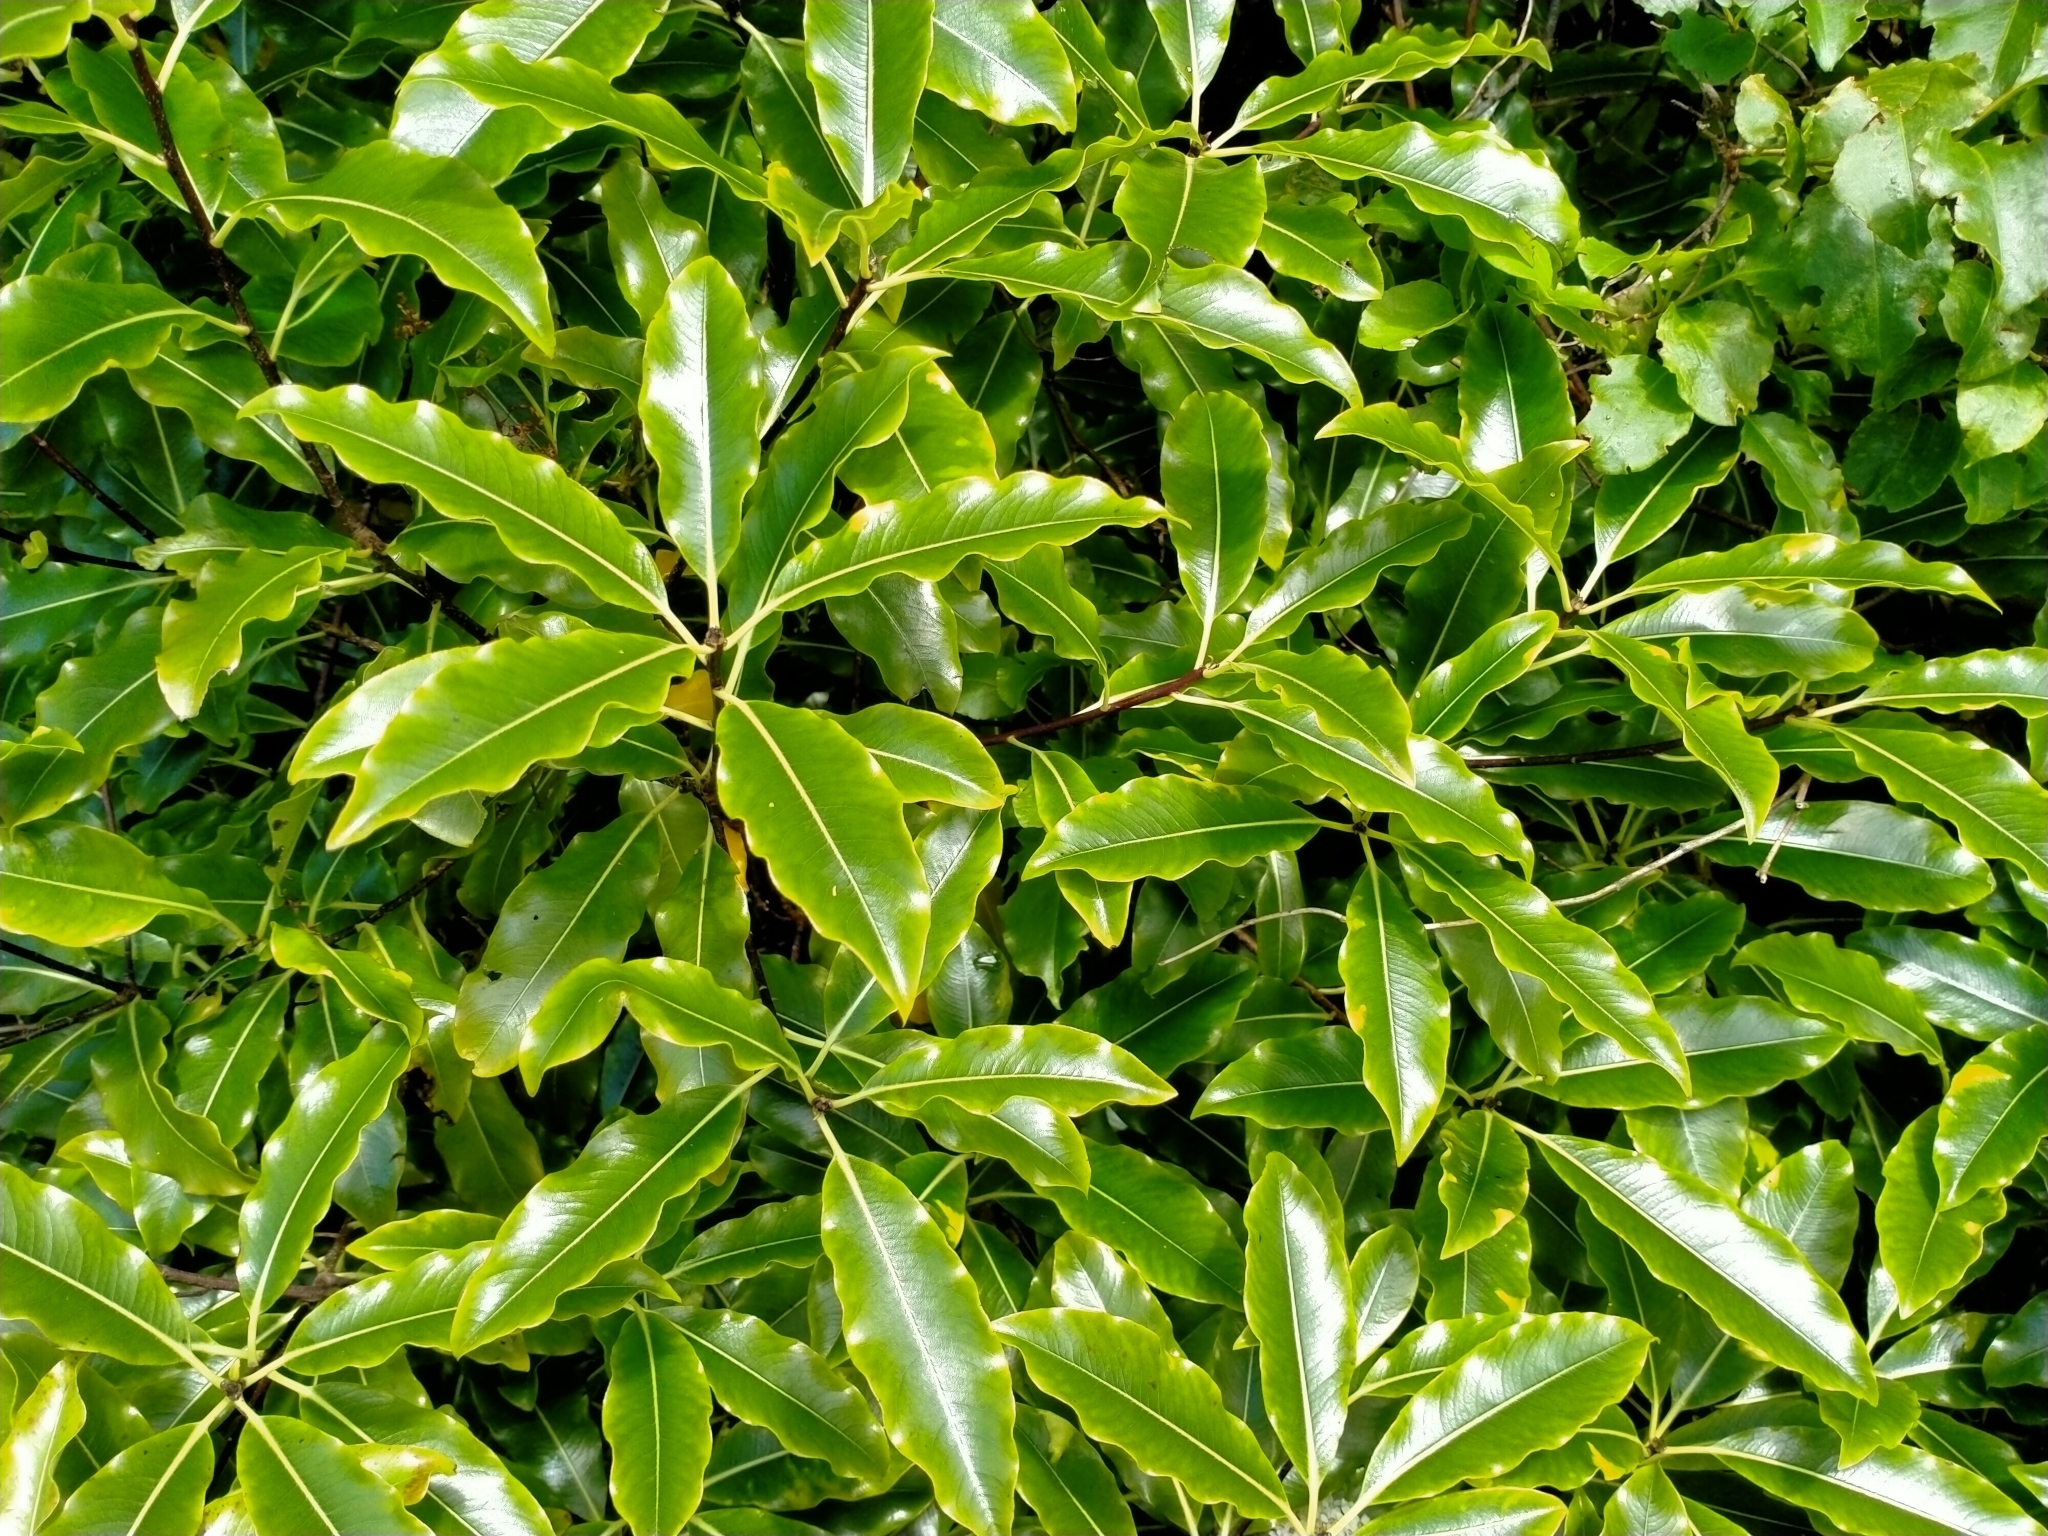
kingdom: Plantae
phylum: Tracheophyta
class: Magnoliopsida
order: Apiales
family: Pittosporaceae
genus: Pittosporum
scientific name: Pittosporum eugenioides
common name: Lemonwood
